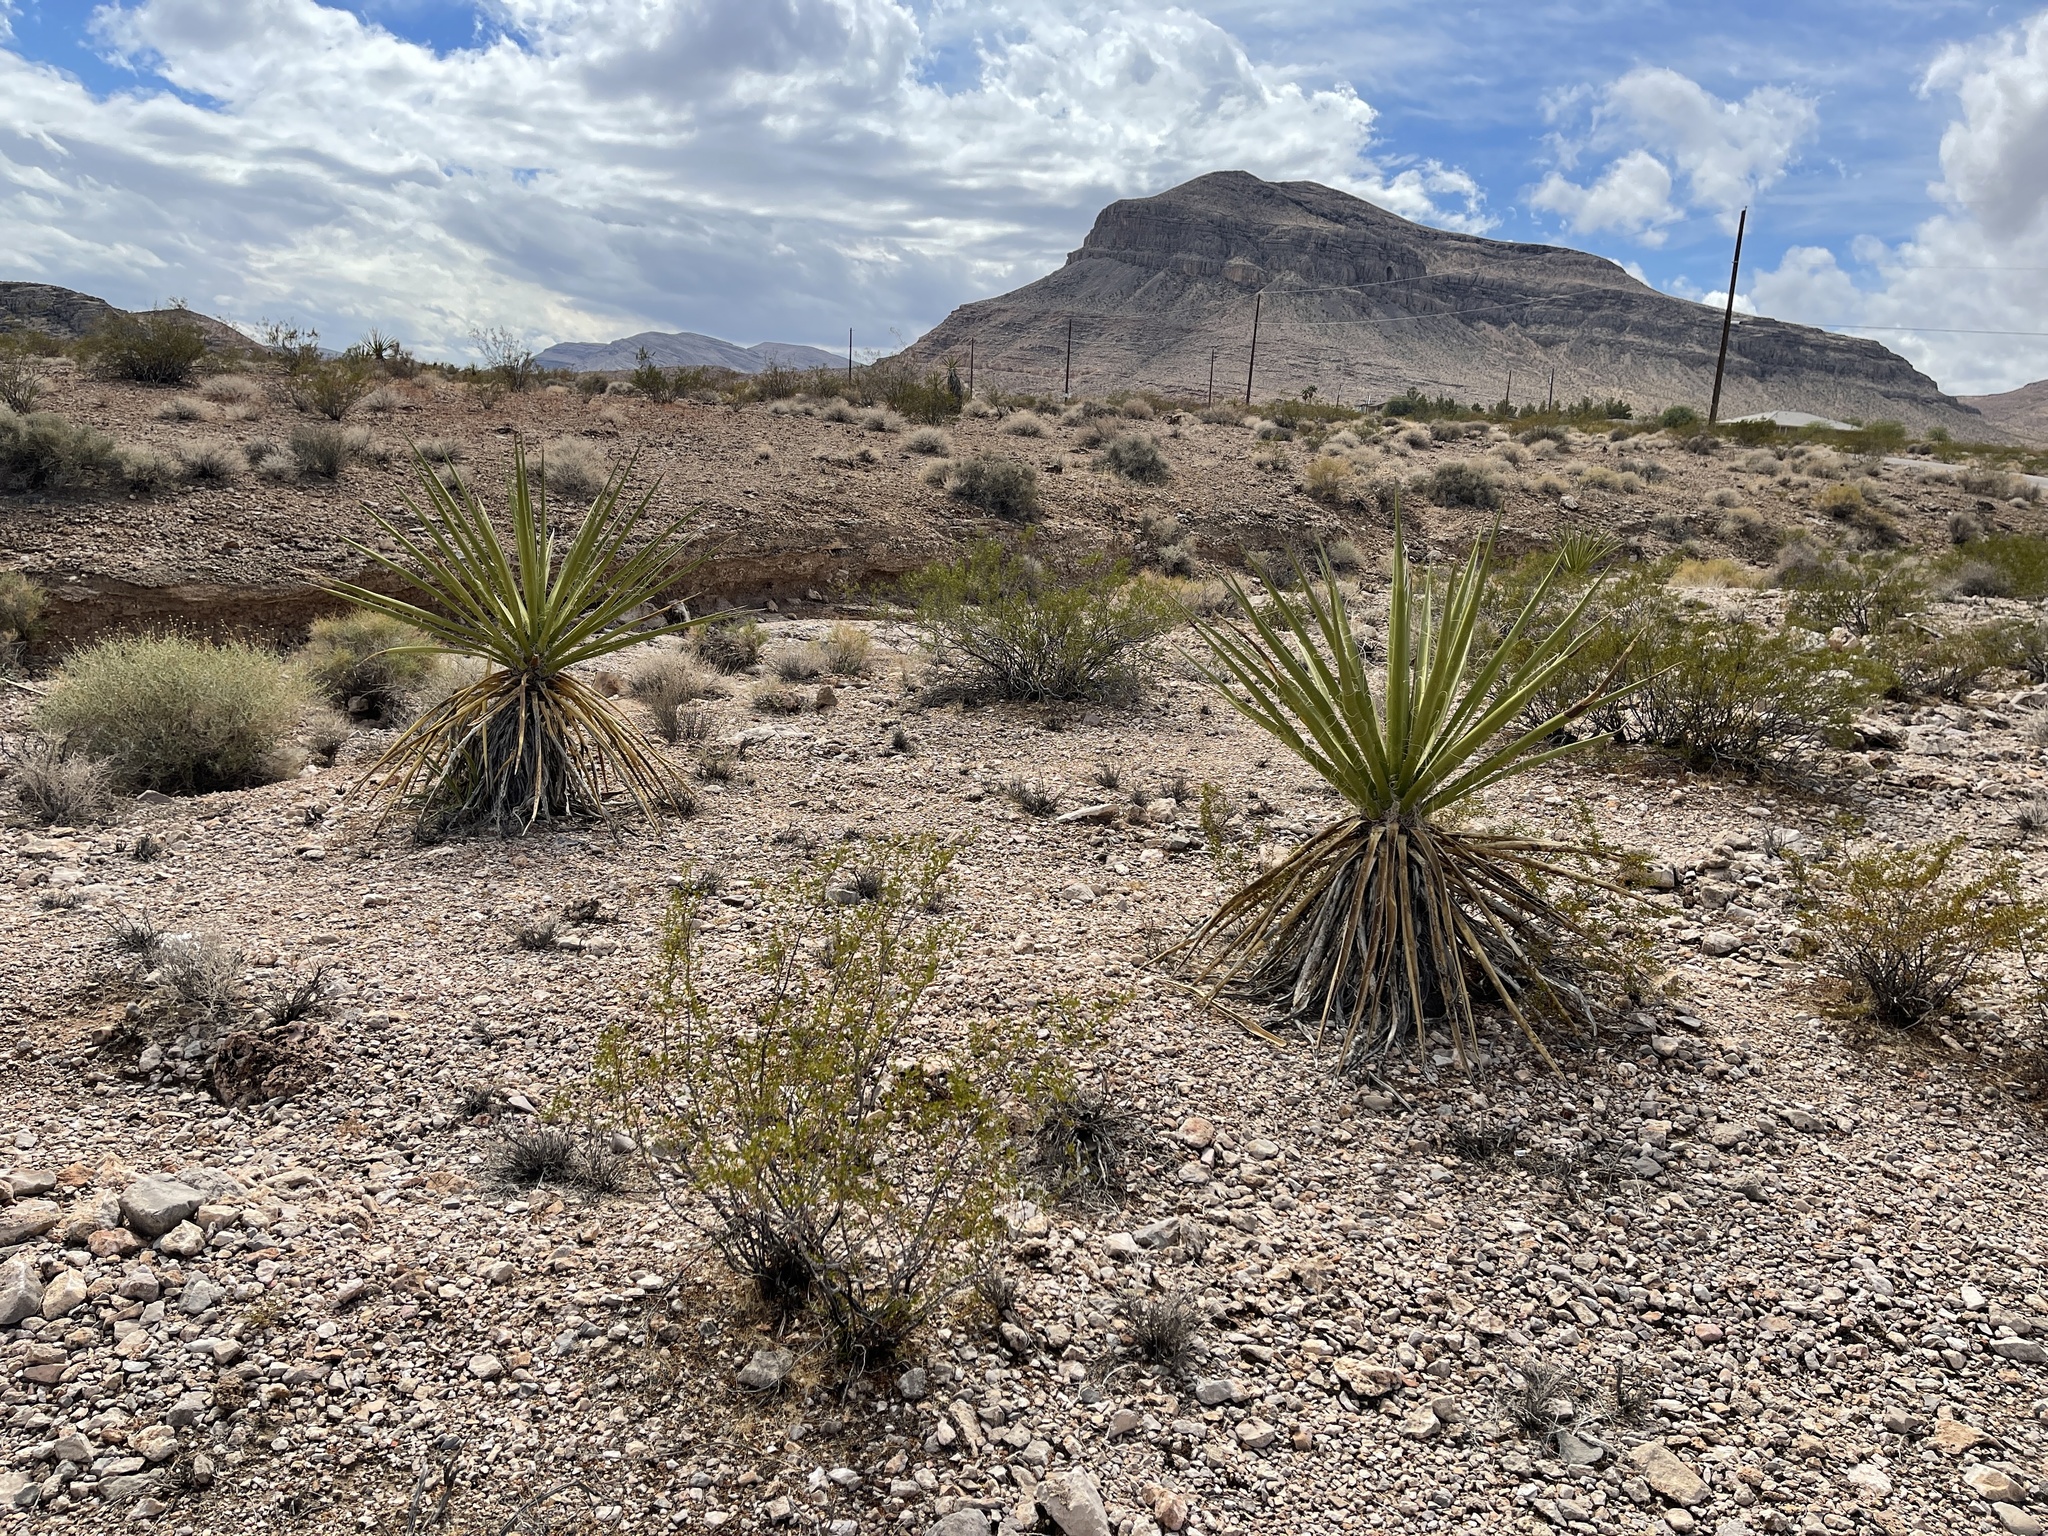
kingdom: Plantae
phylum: Tracheophyta
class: Liliopsida
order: Asparagales
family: Asparagaceae
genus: Yucca
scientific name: Yucca schidigera
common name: Mojave yucca
